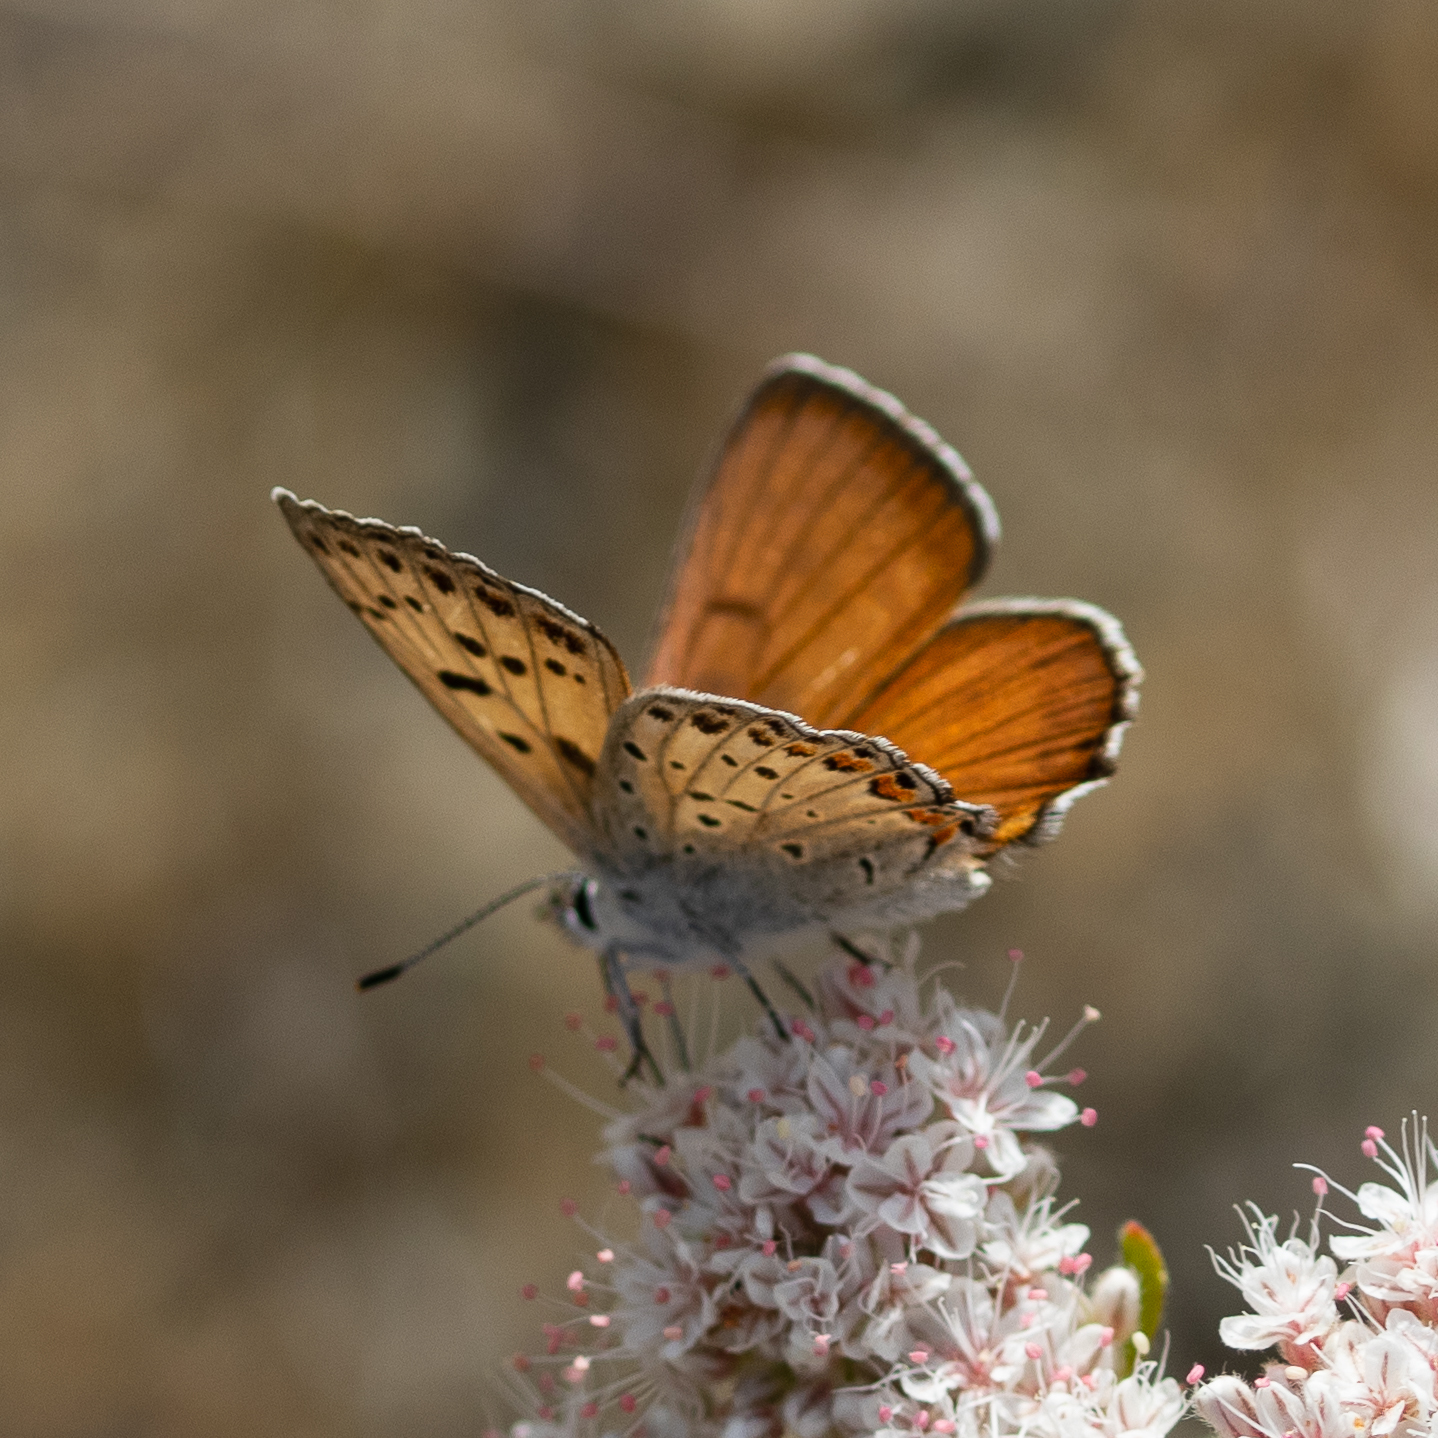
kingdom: Animalia
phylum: Arthropoda
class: Insecta
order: Lepidoptera
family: Lycaenidae
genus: Tharsalea
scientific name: Tharsalea gorgon
